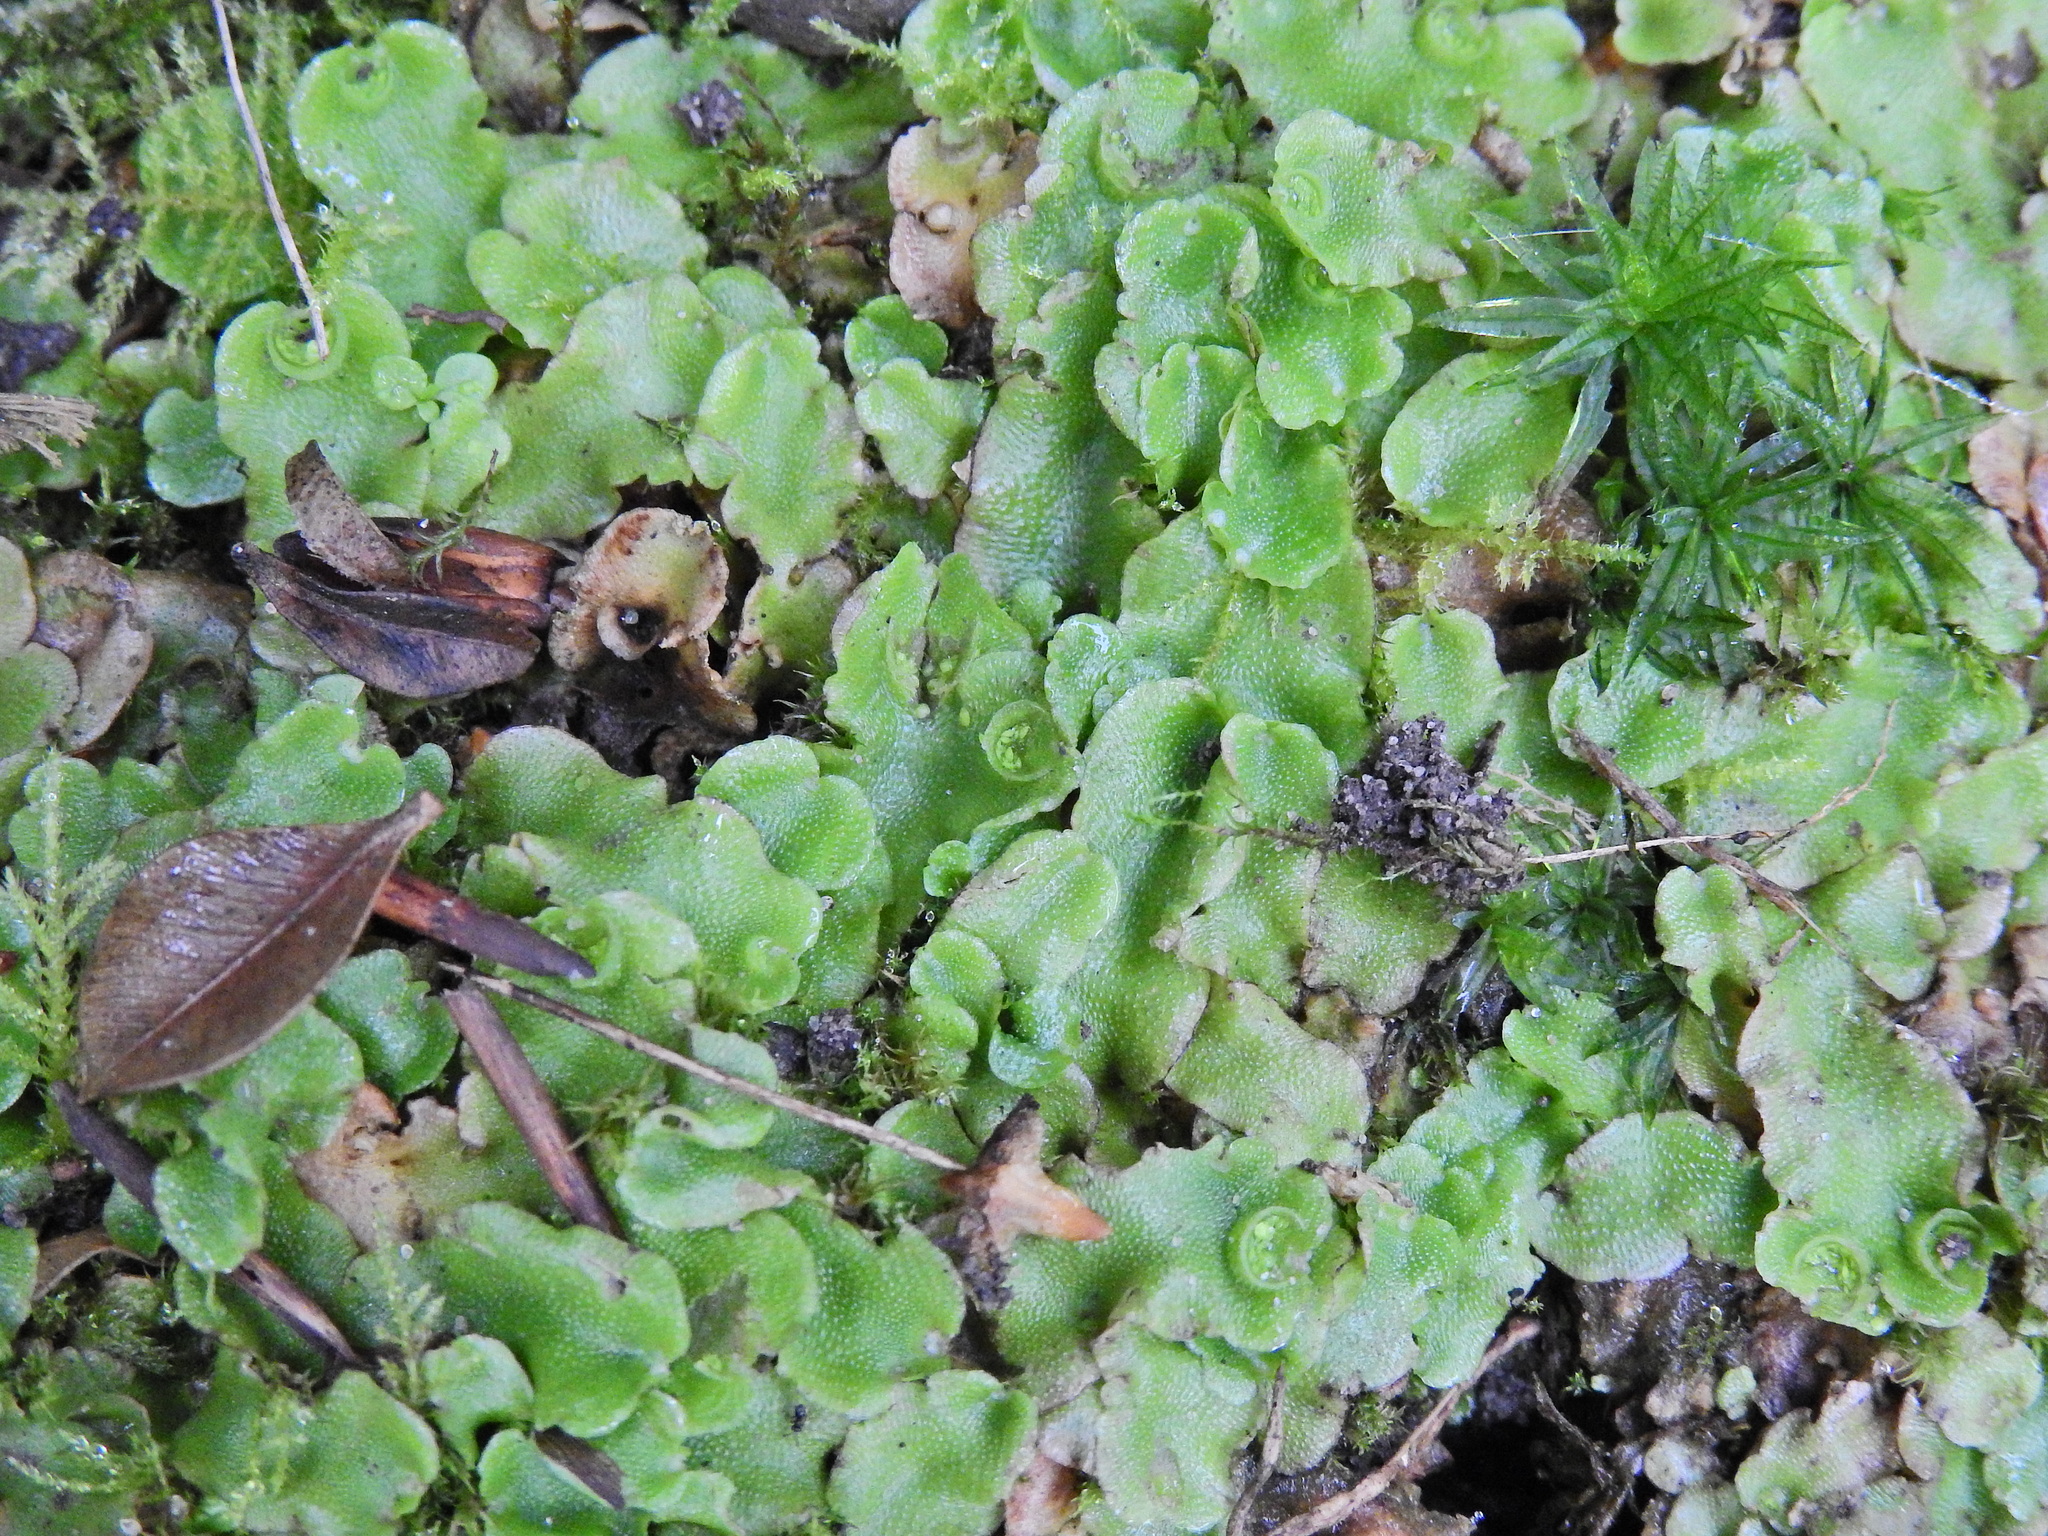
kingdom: Plantae
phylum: Marchantiophyta
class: Marchantiopsida
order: Lunulariales
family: Lunulariaceae
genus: Lunularia
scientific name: Lunularia cruciata
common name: Crescent-cup liverwort
